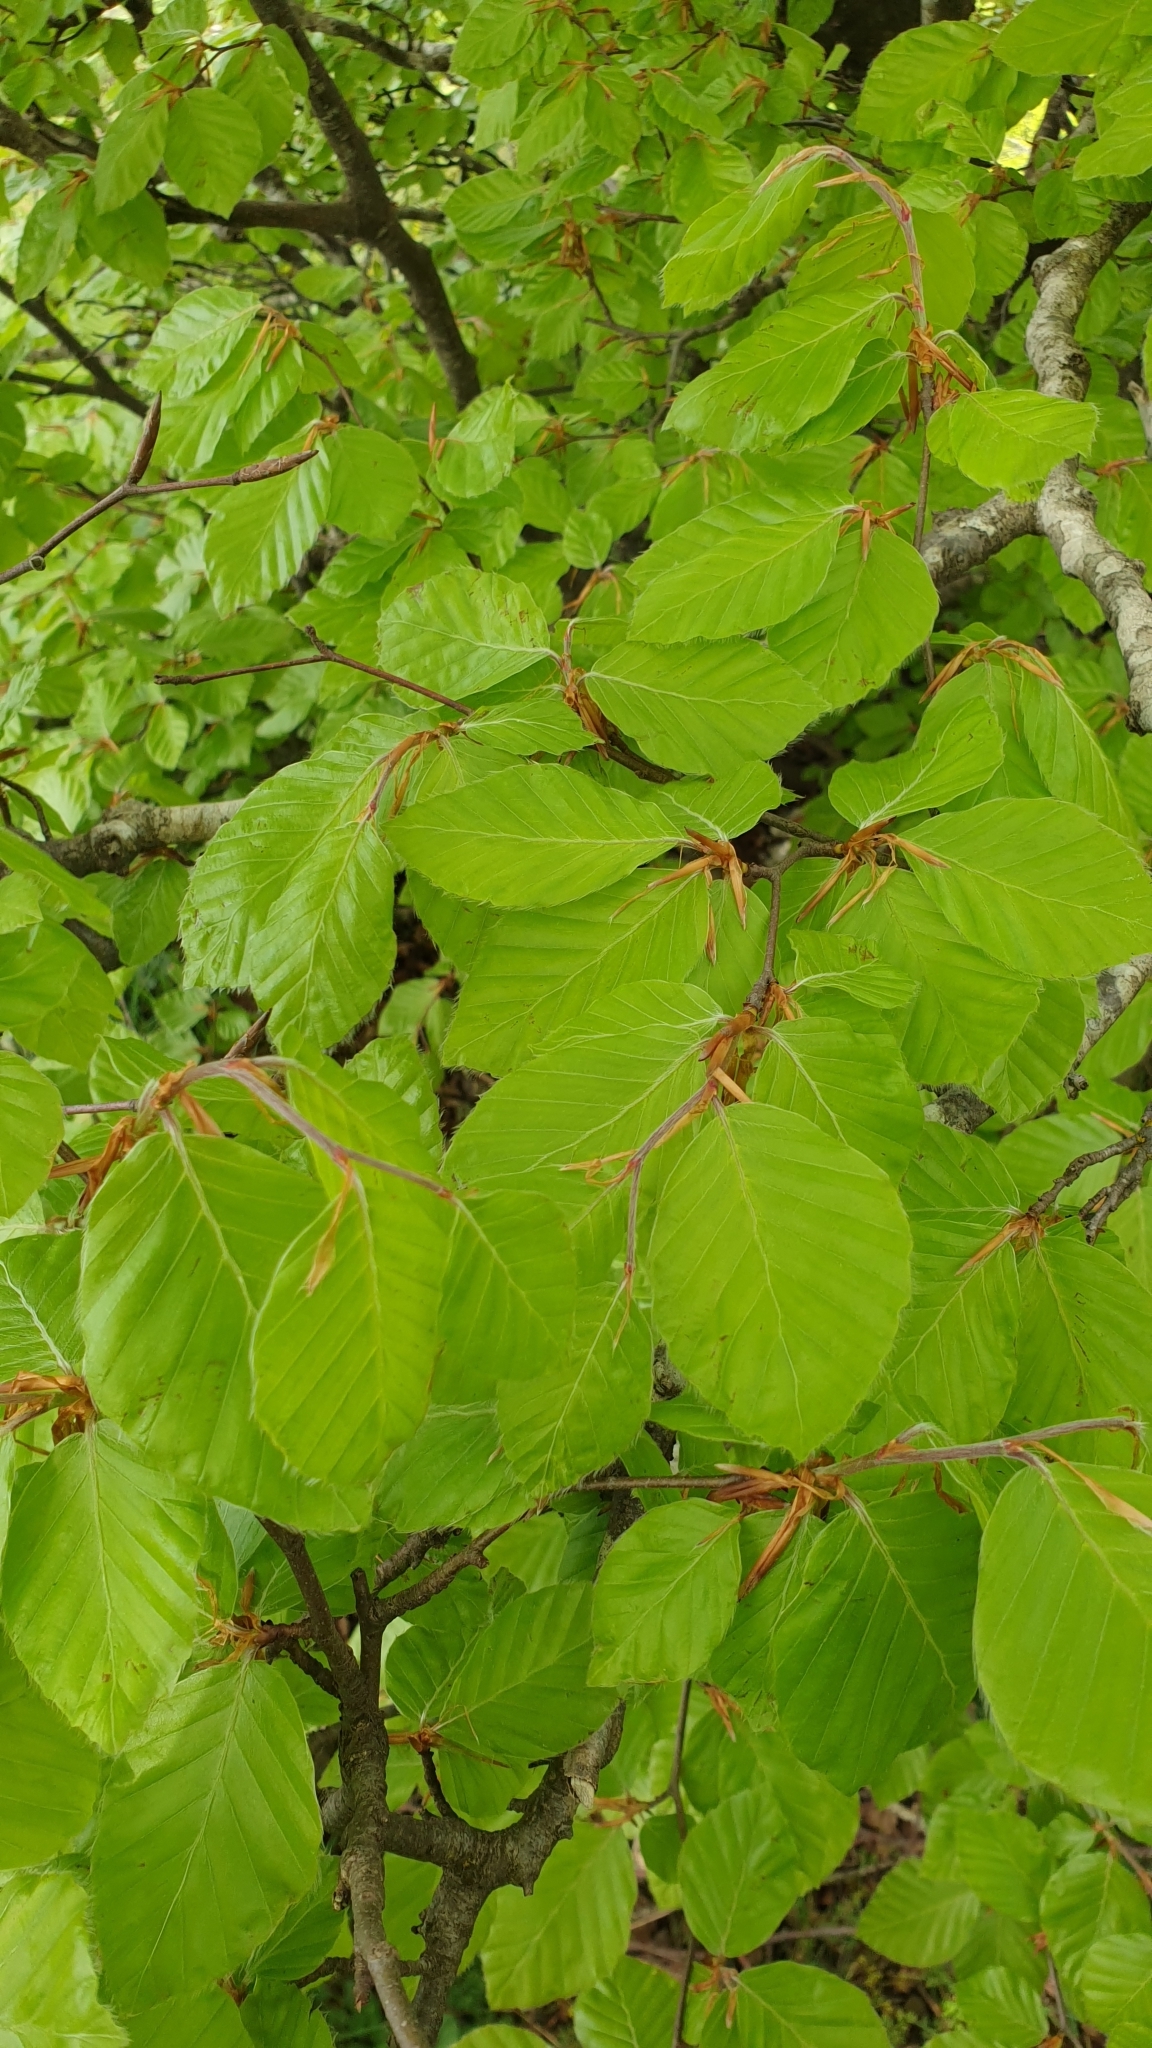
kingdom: Plantae
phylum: Tracheophyta
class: Magnoliopsida
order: Fagales
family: Fagaceae
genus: Fagus
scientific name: Fagus sylvatica
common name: Beech
